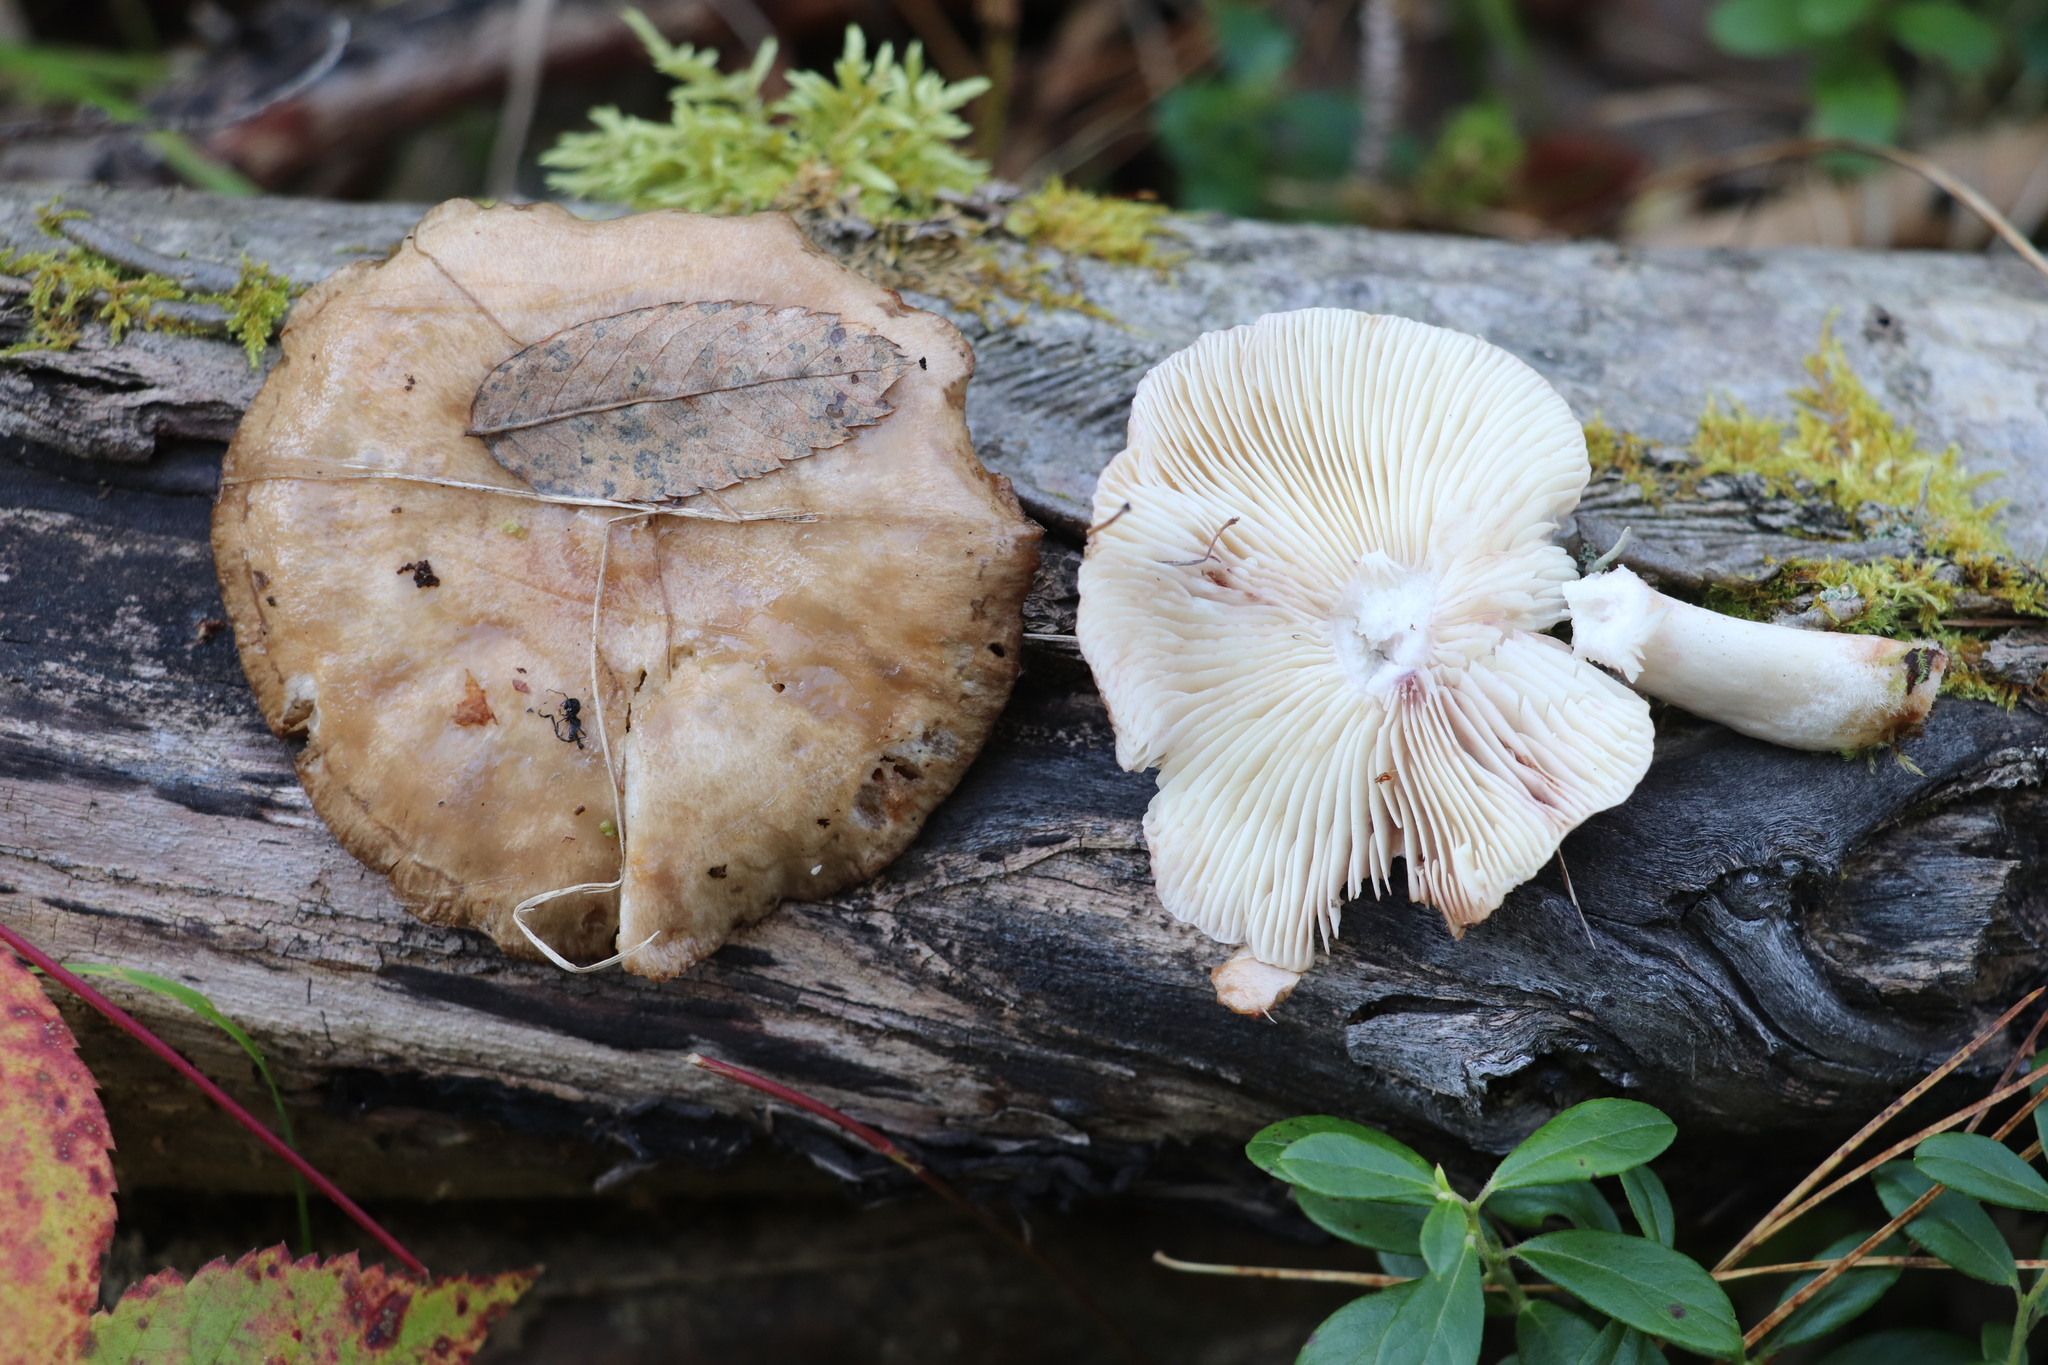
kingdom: Fungi
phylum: Basidiomycota
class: Agaricomycetes
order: Russulales
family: Russulaceae
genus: Lactarius
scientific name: Lactarius uvidus
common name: Shiner milkcap
